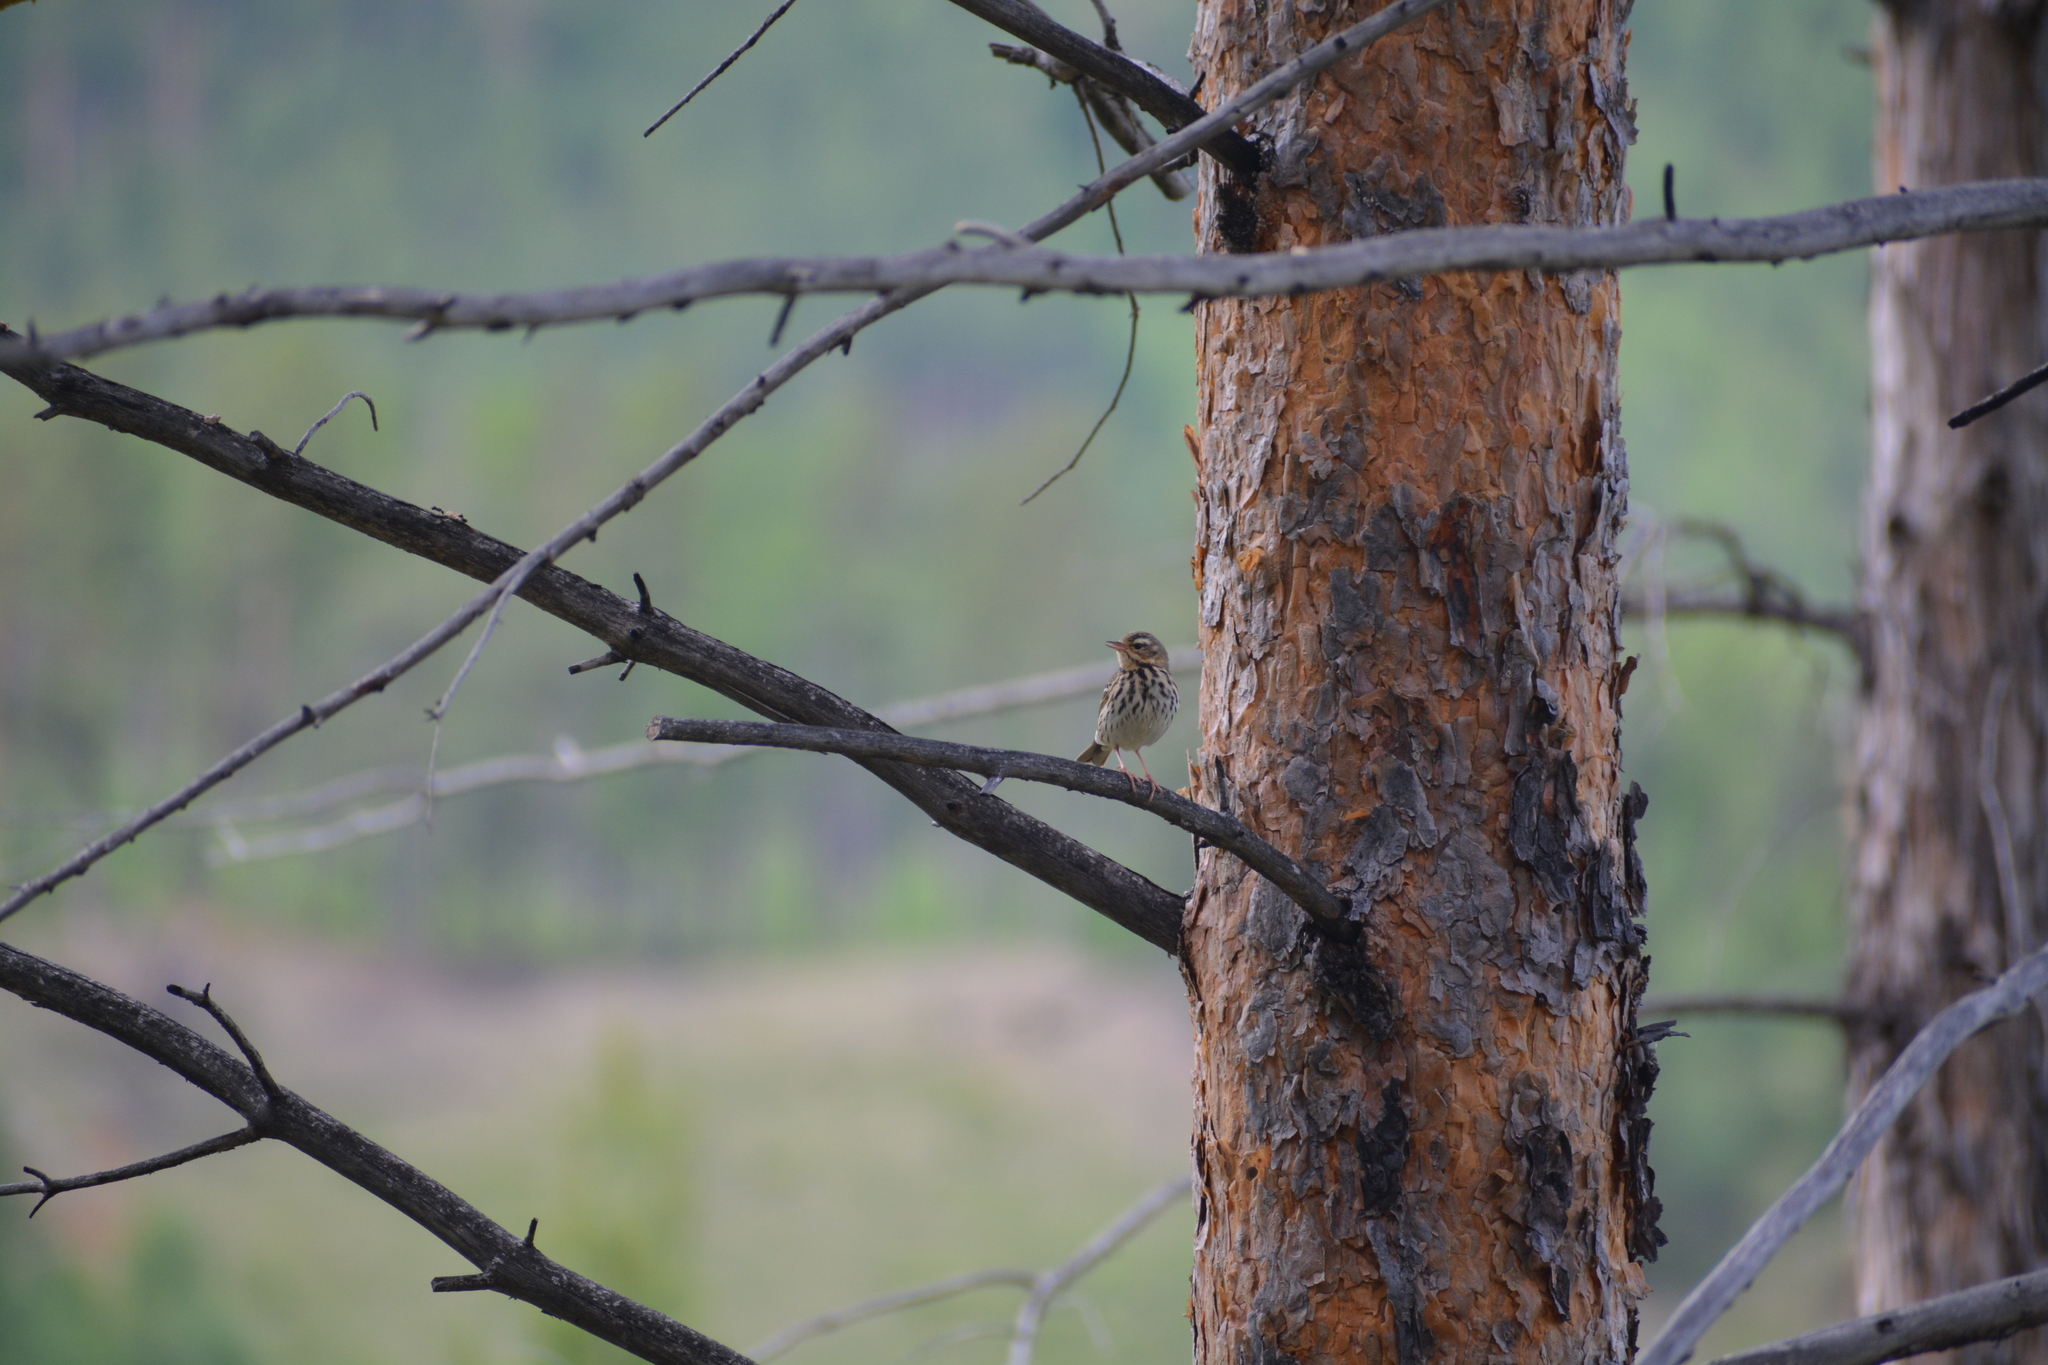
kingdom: Animalia
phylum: Chordata
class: Aves
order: Passeriformes
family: Motacillidae
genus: Anthus
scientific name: Anthus hodgsoni
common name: Olive-backed pipit
